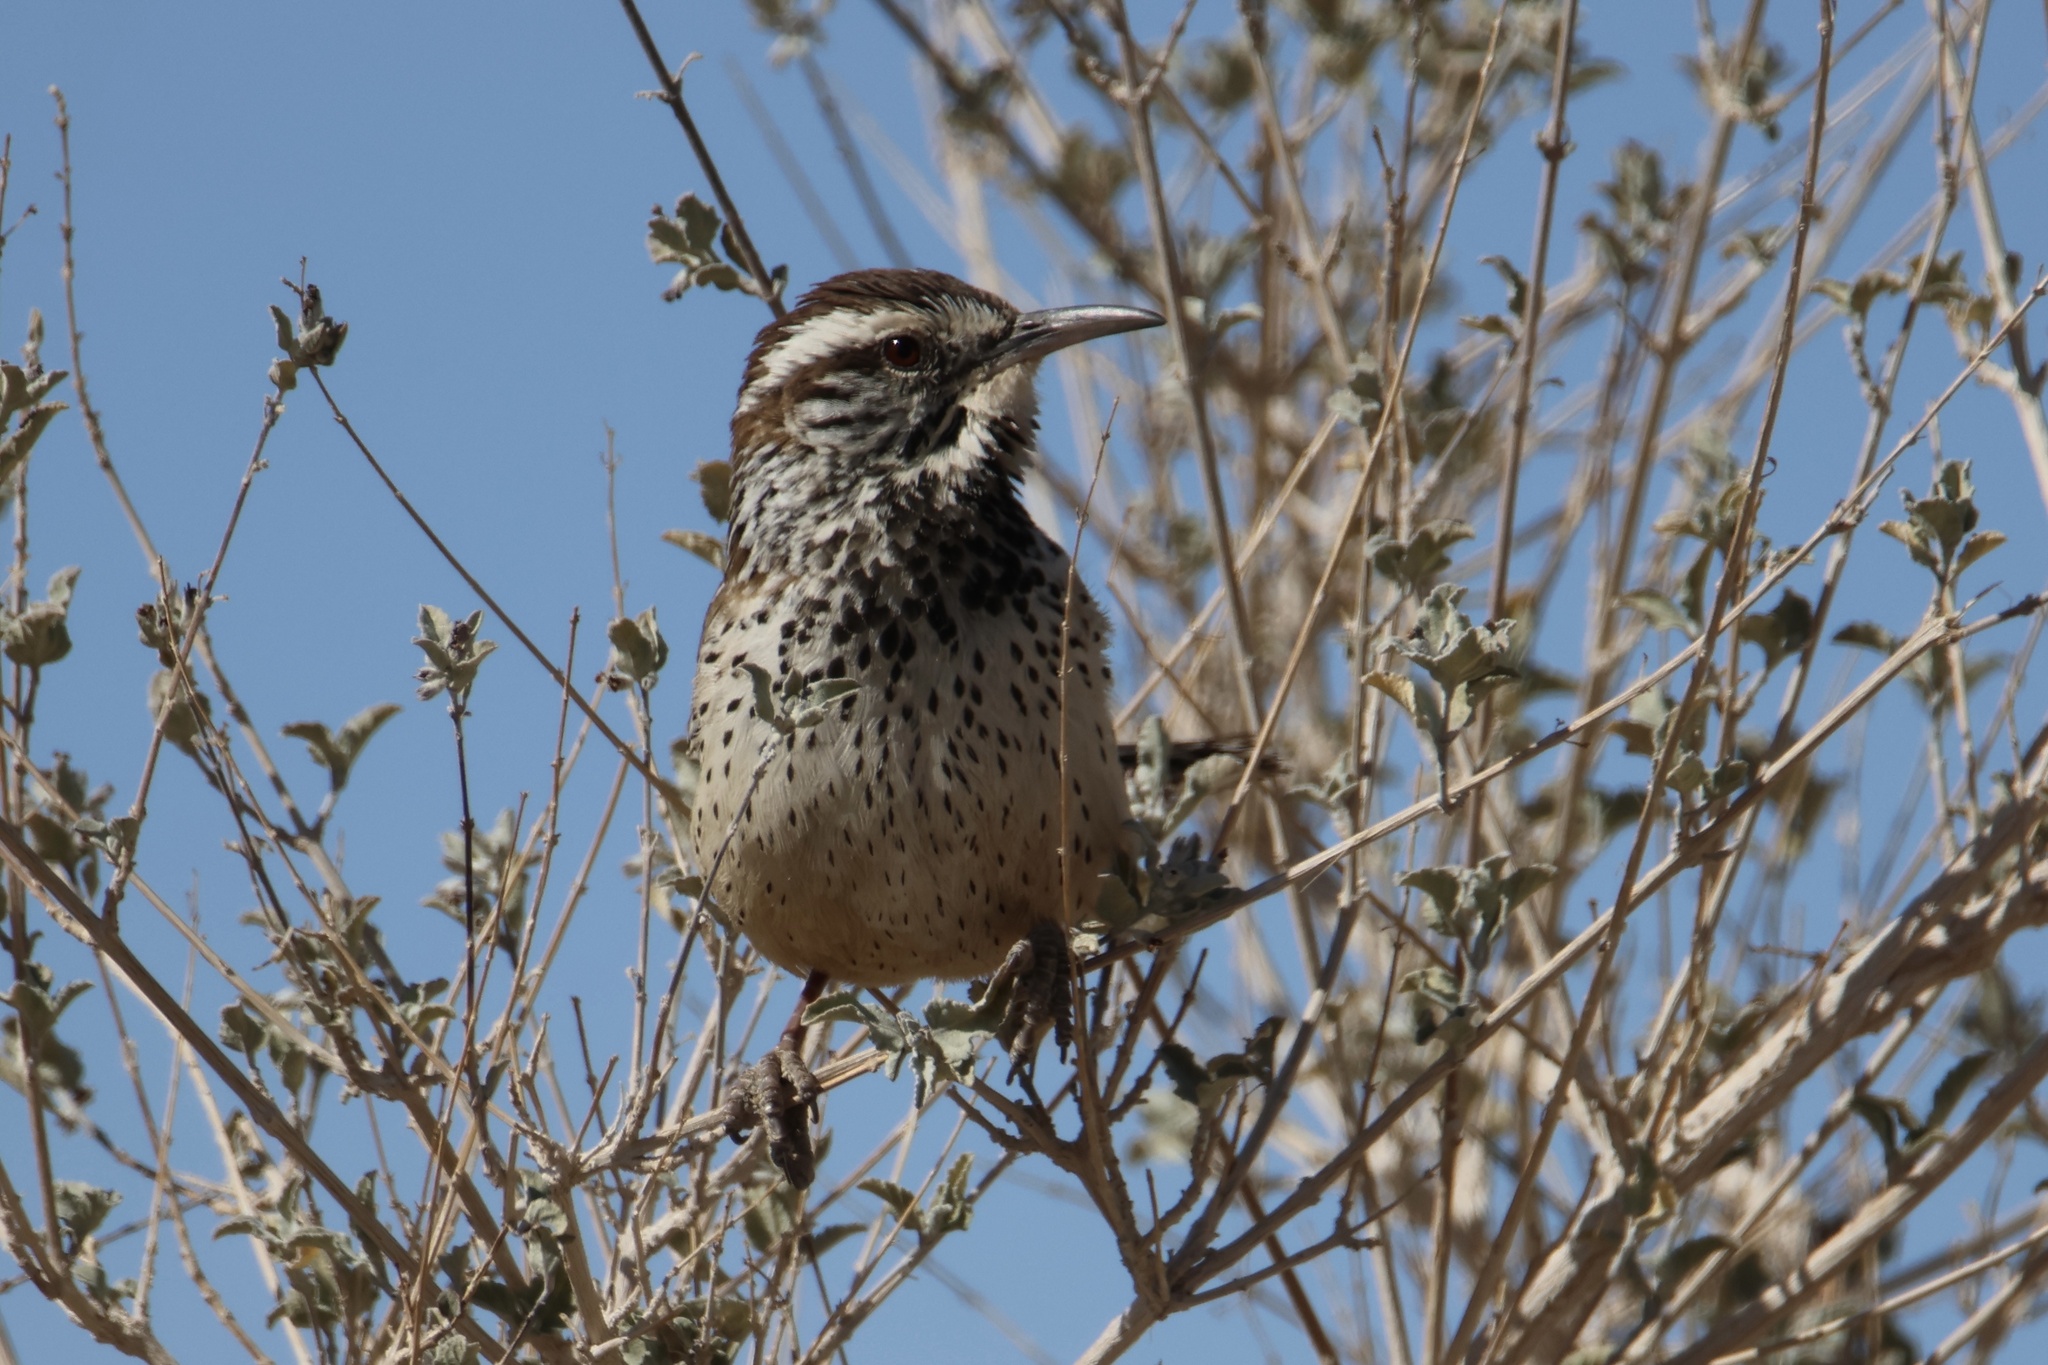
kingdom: Animalia
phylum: Chordata
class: Aves
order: Passeriformes
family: Troglodytidae
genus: Campylorhynchus
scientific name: Campylorhynchus brunneicapillus
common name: Cactus wren
